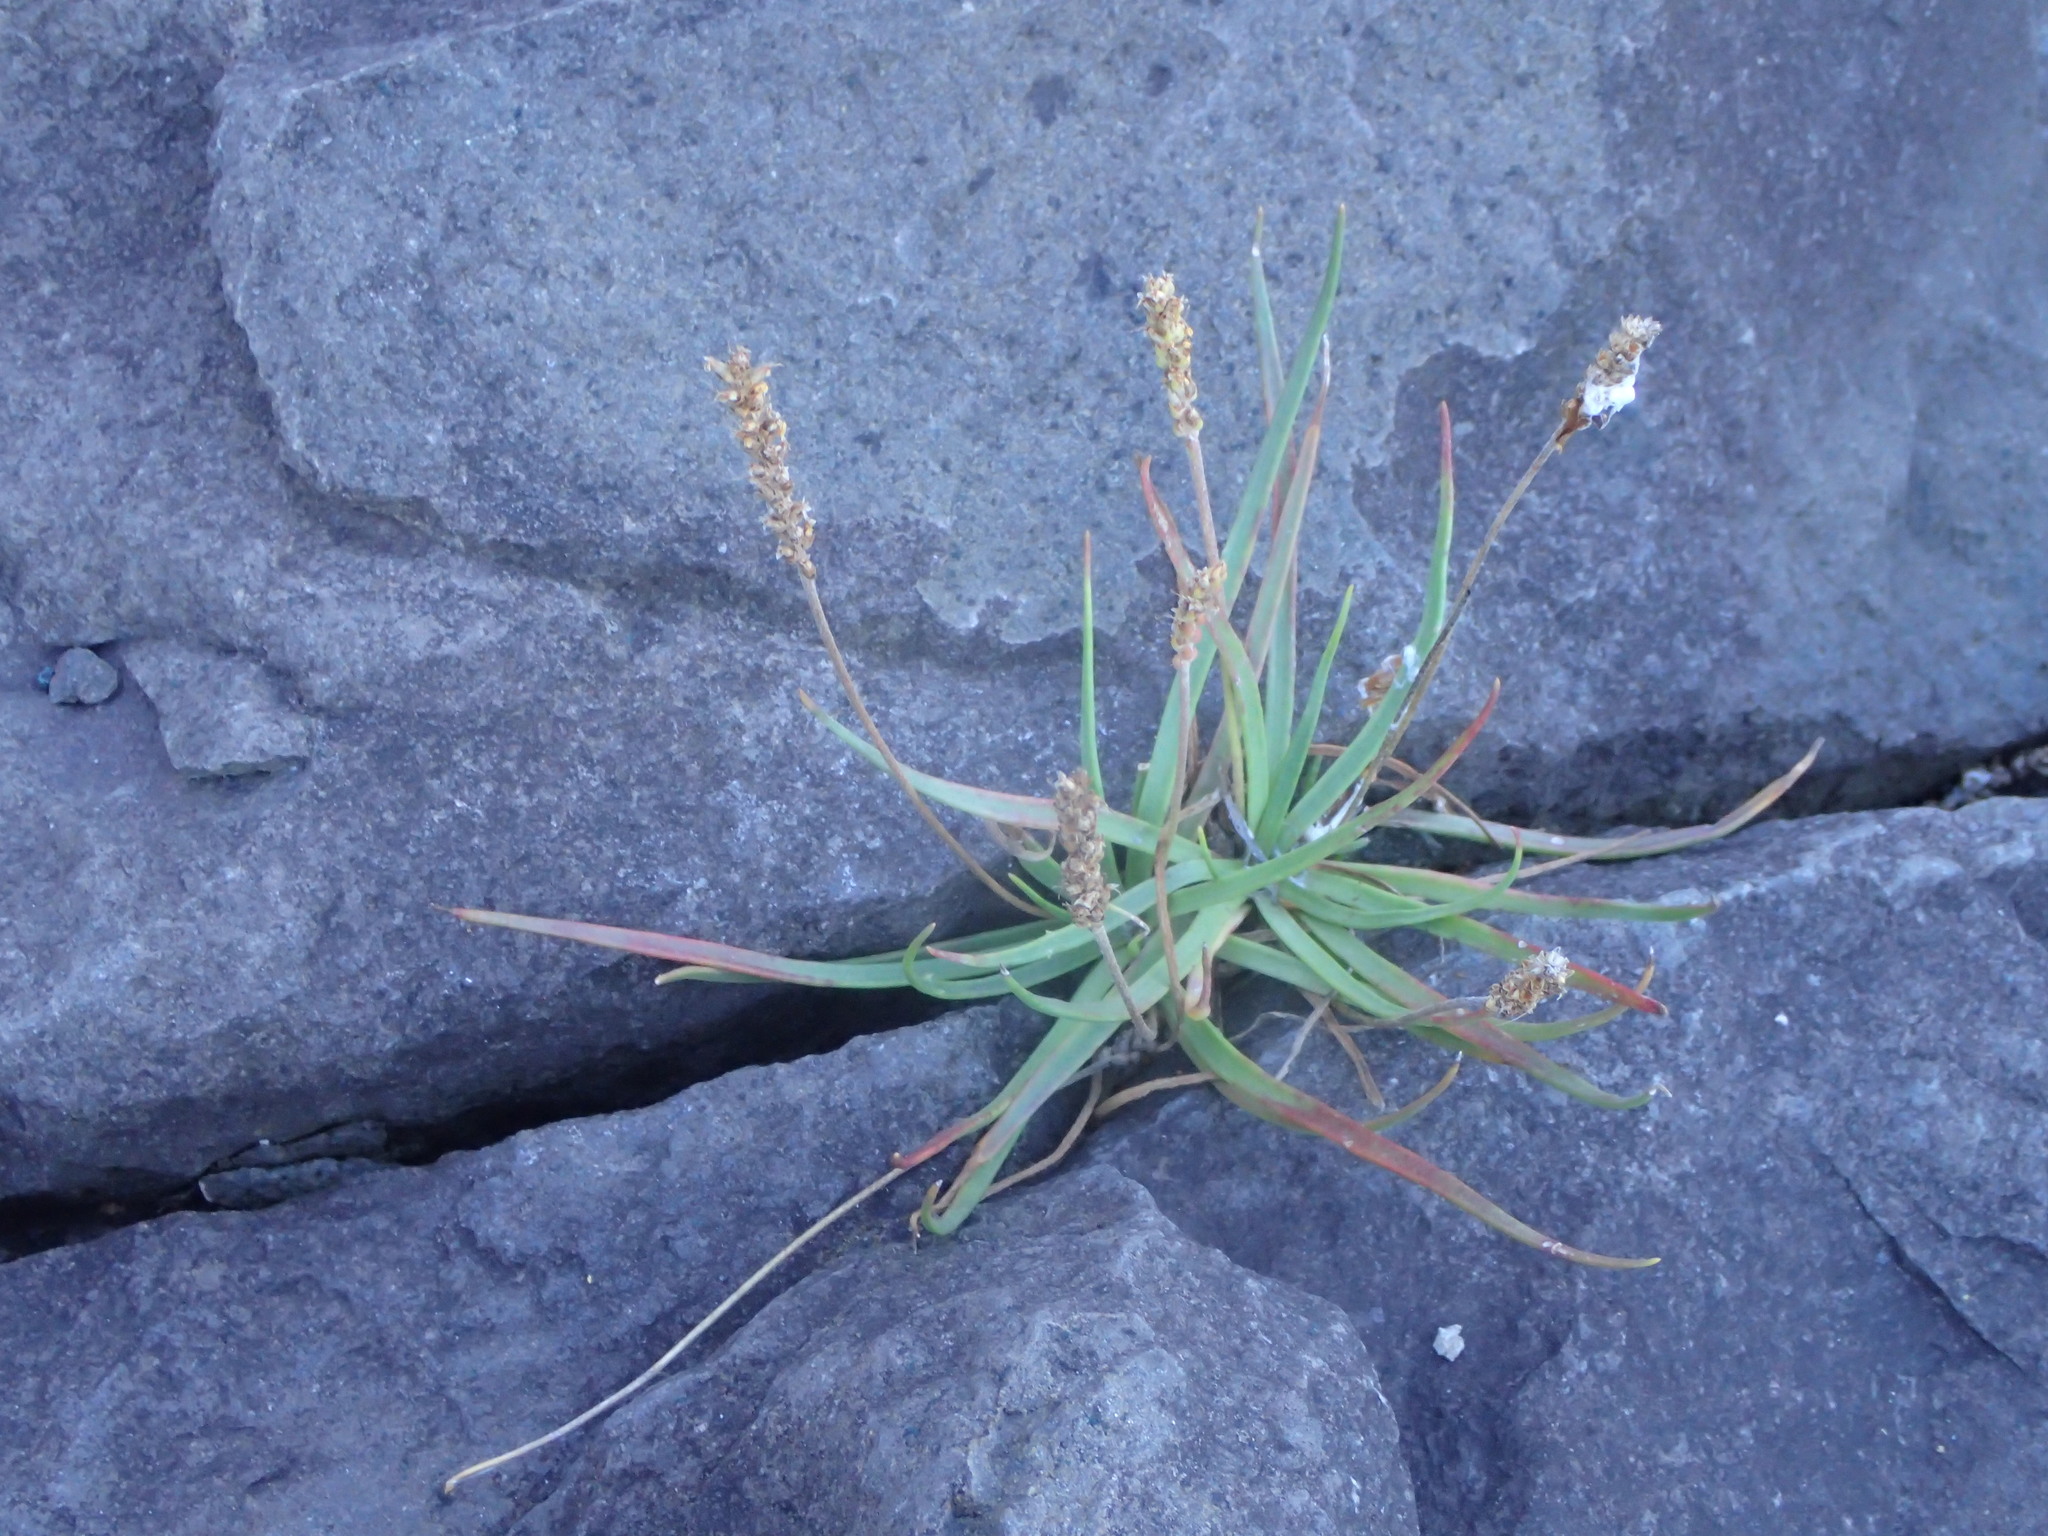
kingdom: Plantae
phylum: Tracheophyta
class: Magnoliopsida
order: Lamiales
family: Plantaginaceae
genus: Plantago
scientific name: Plantago maritima
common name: Sea plantain
